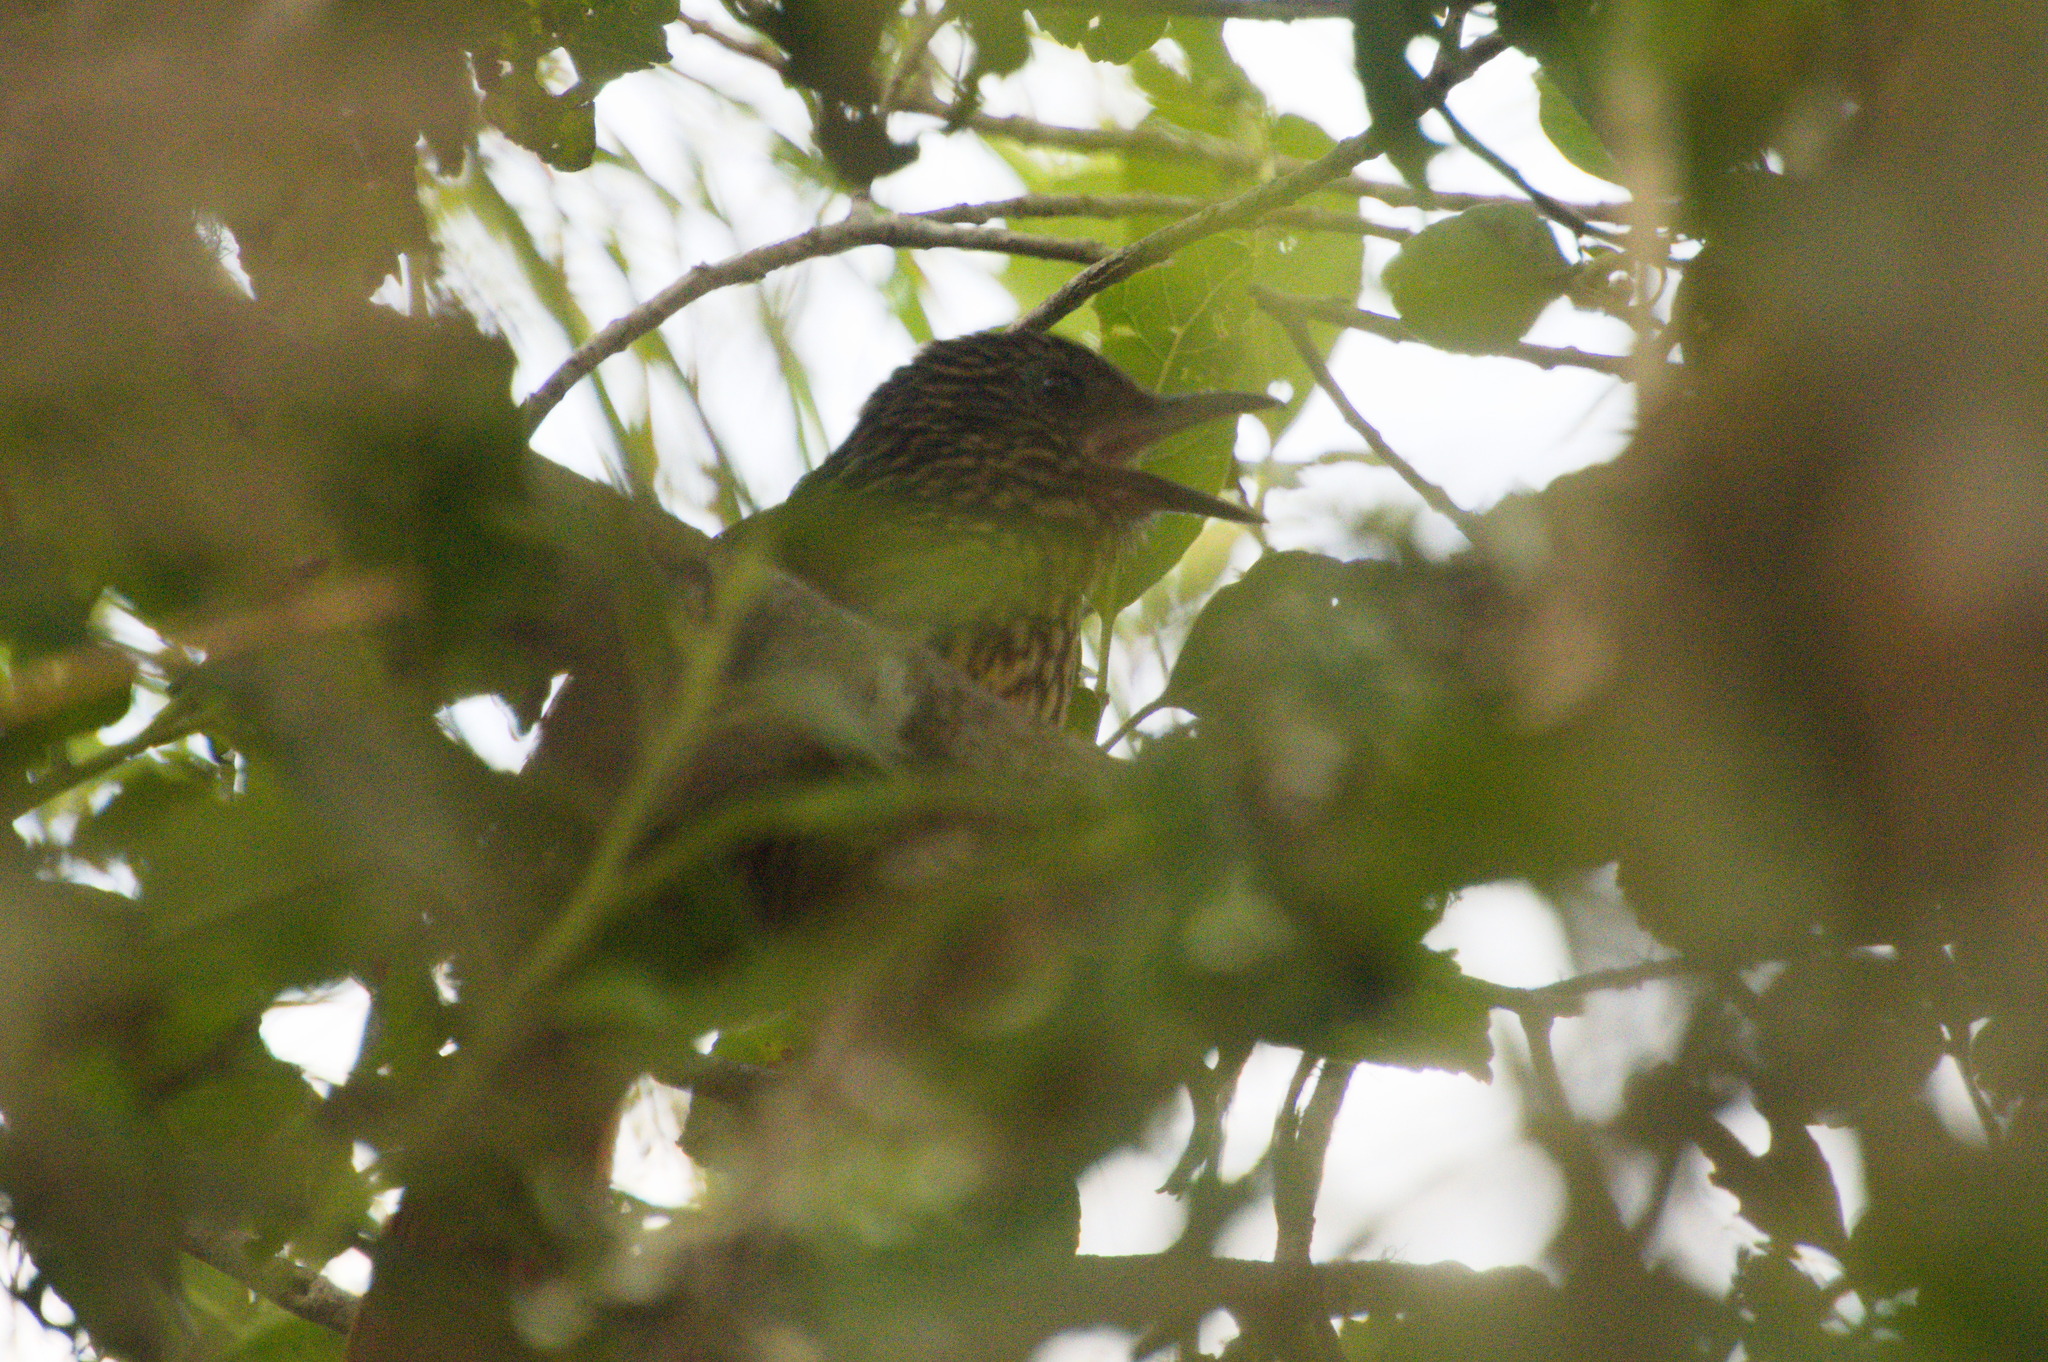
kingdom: Animalia
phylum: Chordata
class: Aves
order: Passeriformes
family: Furnariidae
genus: Thripadectes
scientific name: Thripadectes flammulatus
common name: Flammulated treehunter
